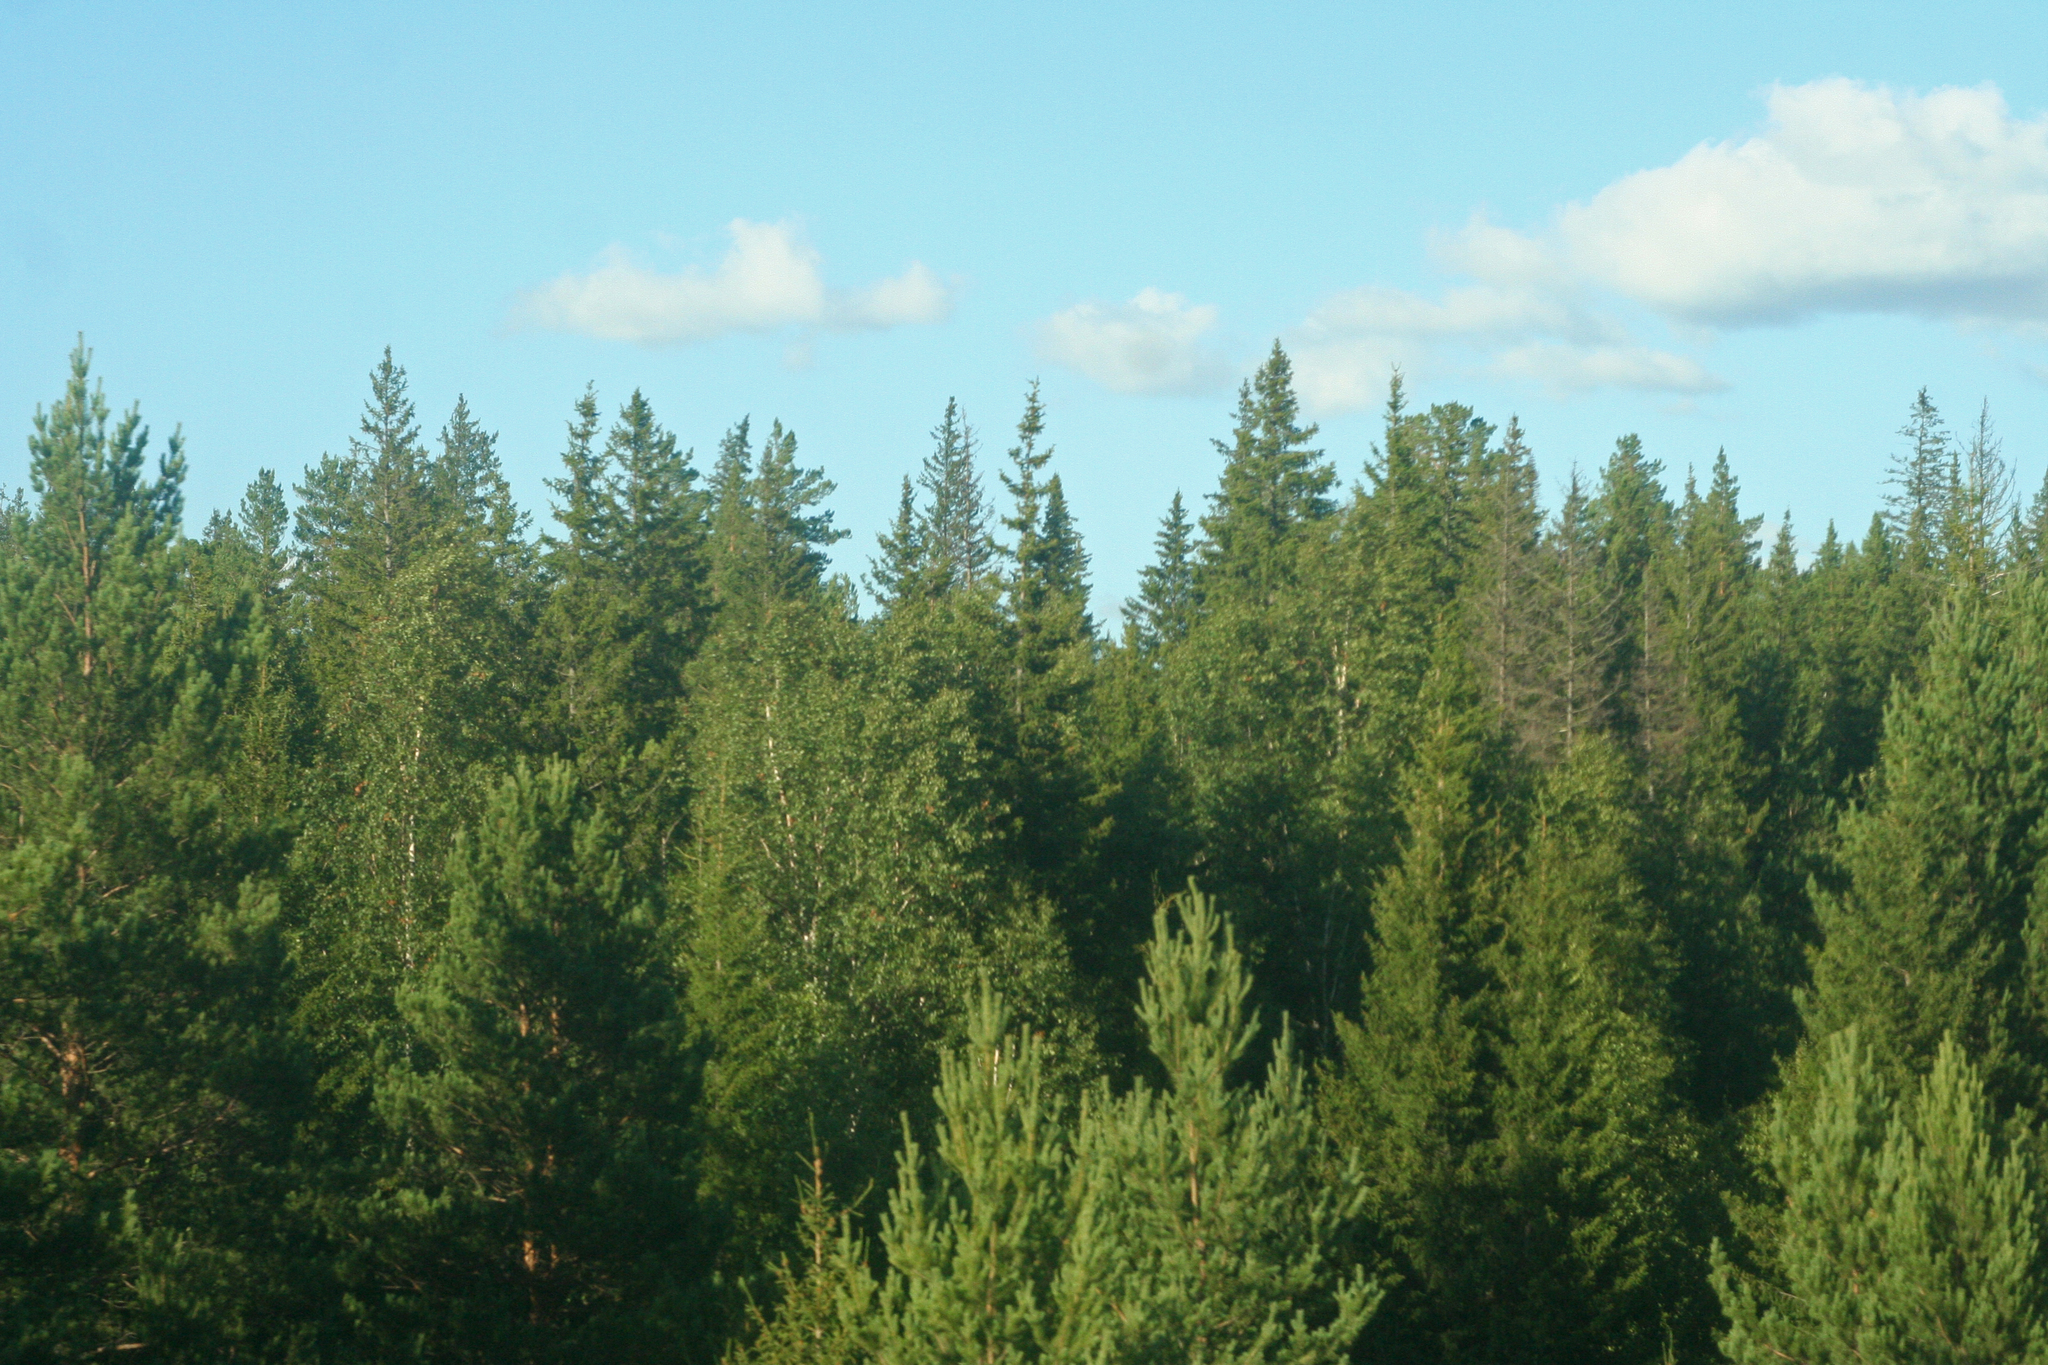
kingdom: Plantae
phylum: Tracheophyta
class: Pinopsida
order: Pinales
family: Pinaceae
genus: Pinus
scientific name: Pinus sylvestris
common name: Scots pine
